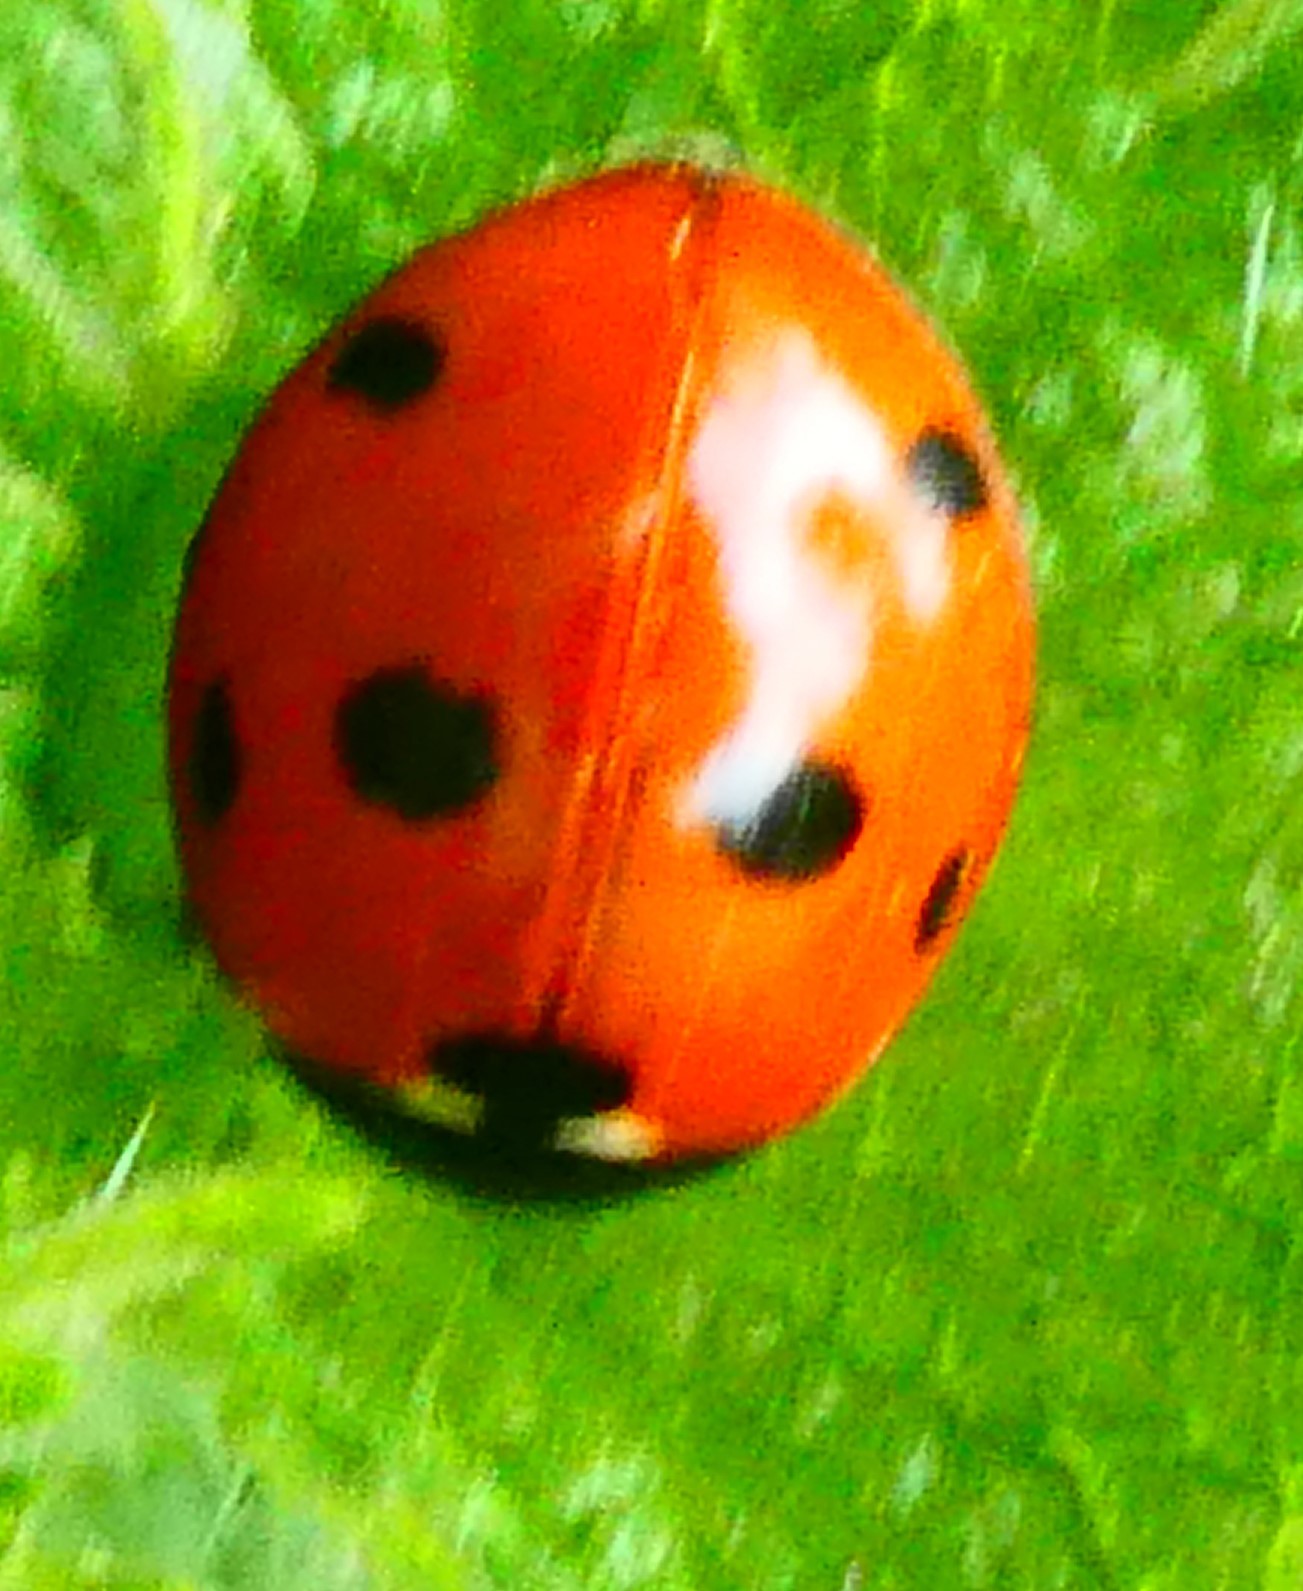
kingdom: Animalia
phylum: Arthropoda
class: Insecta
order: Coleoptera
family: Coccinellidae
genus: Coccinella
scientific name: Coccinella septempunctata
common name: Sevenspotted lady beetle
